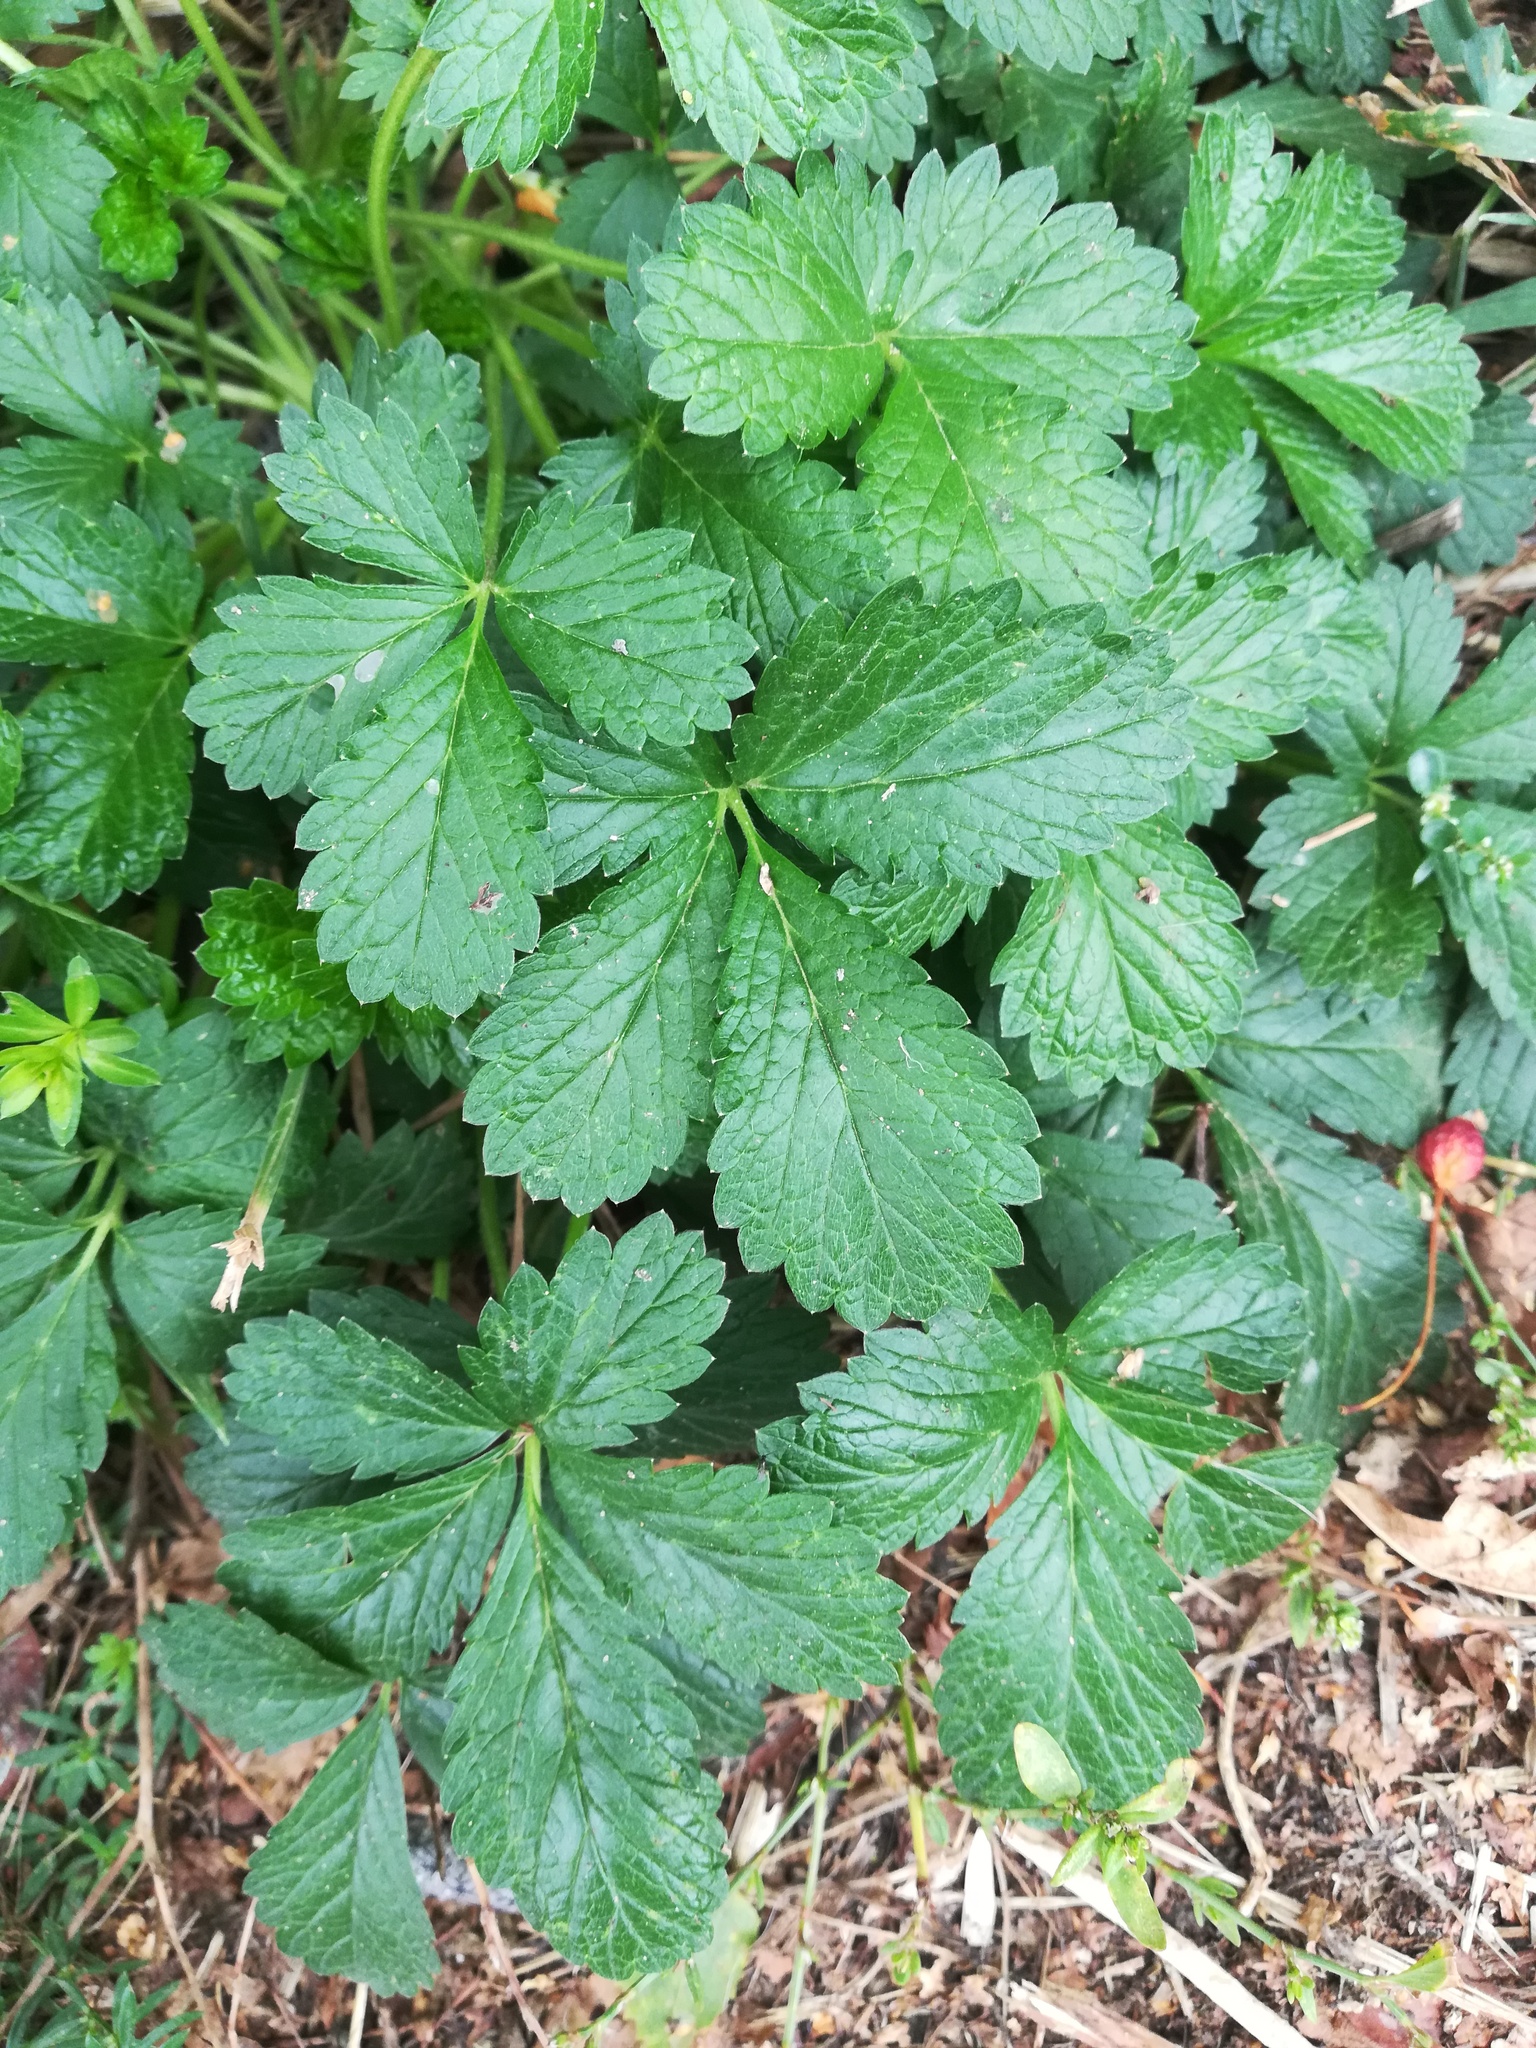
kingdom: Plantae
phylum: Tracheophyta
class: Magnoliopsida
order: Rosales
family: Rosaceae
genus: Potentilla
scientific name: Potentilla intermedia
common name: Downy cinquefoil
